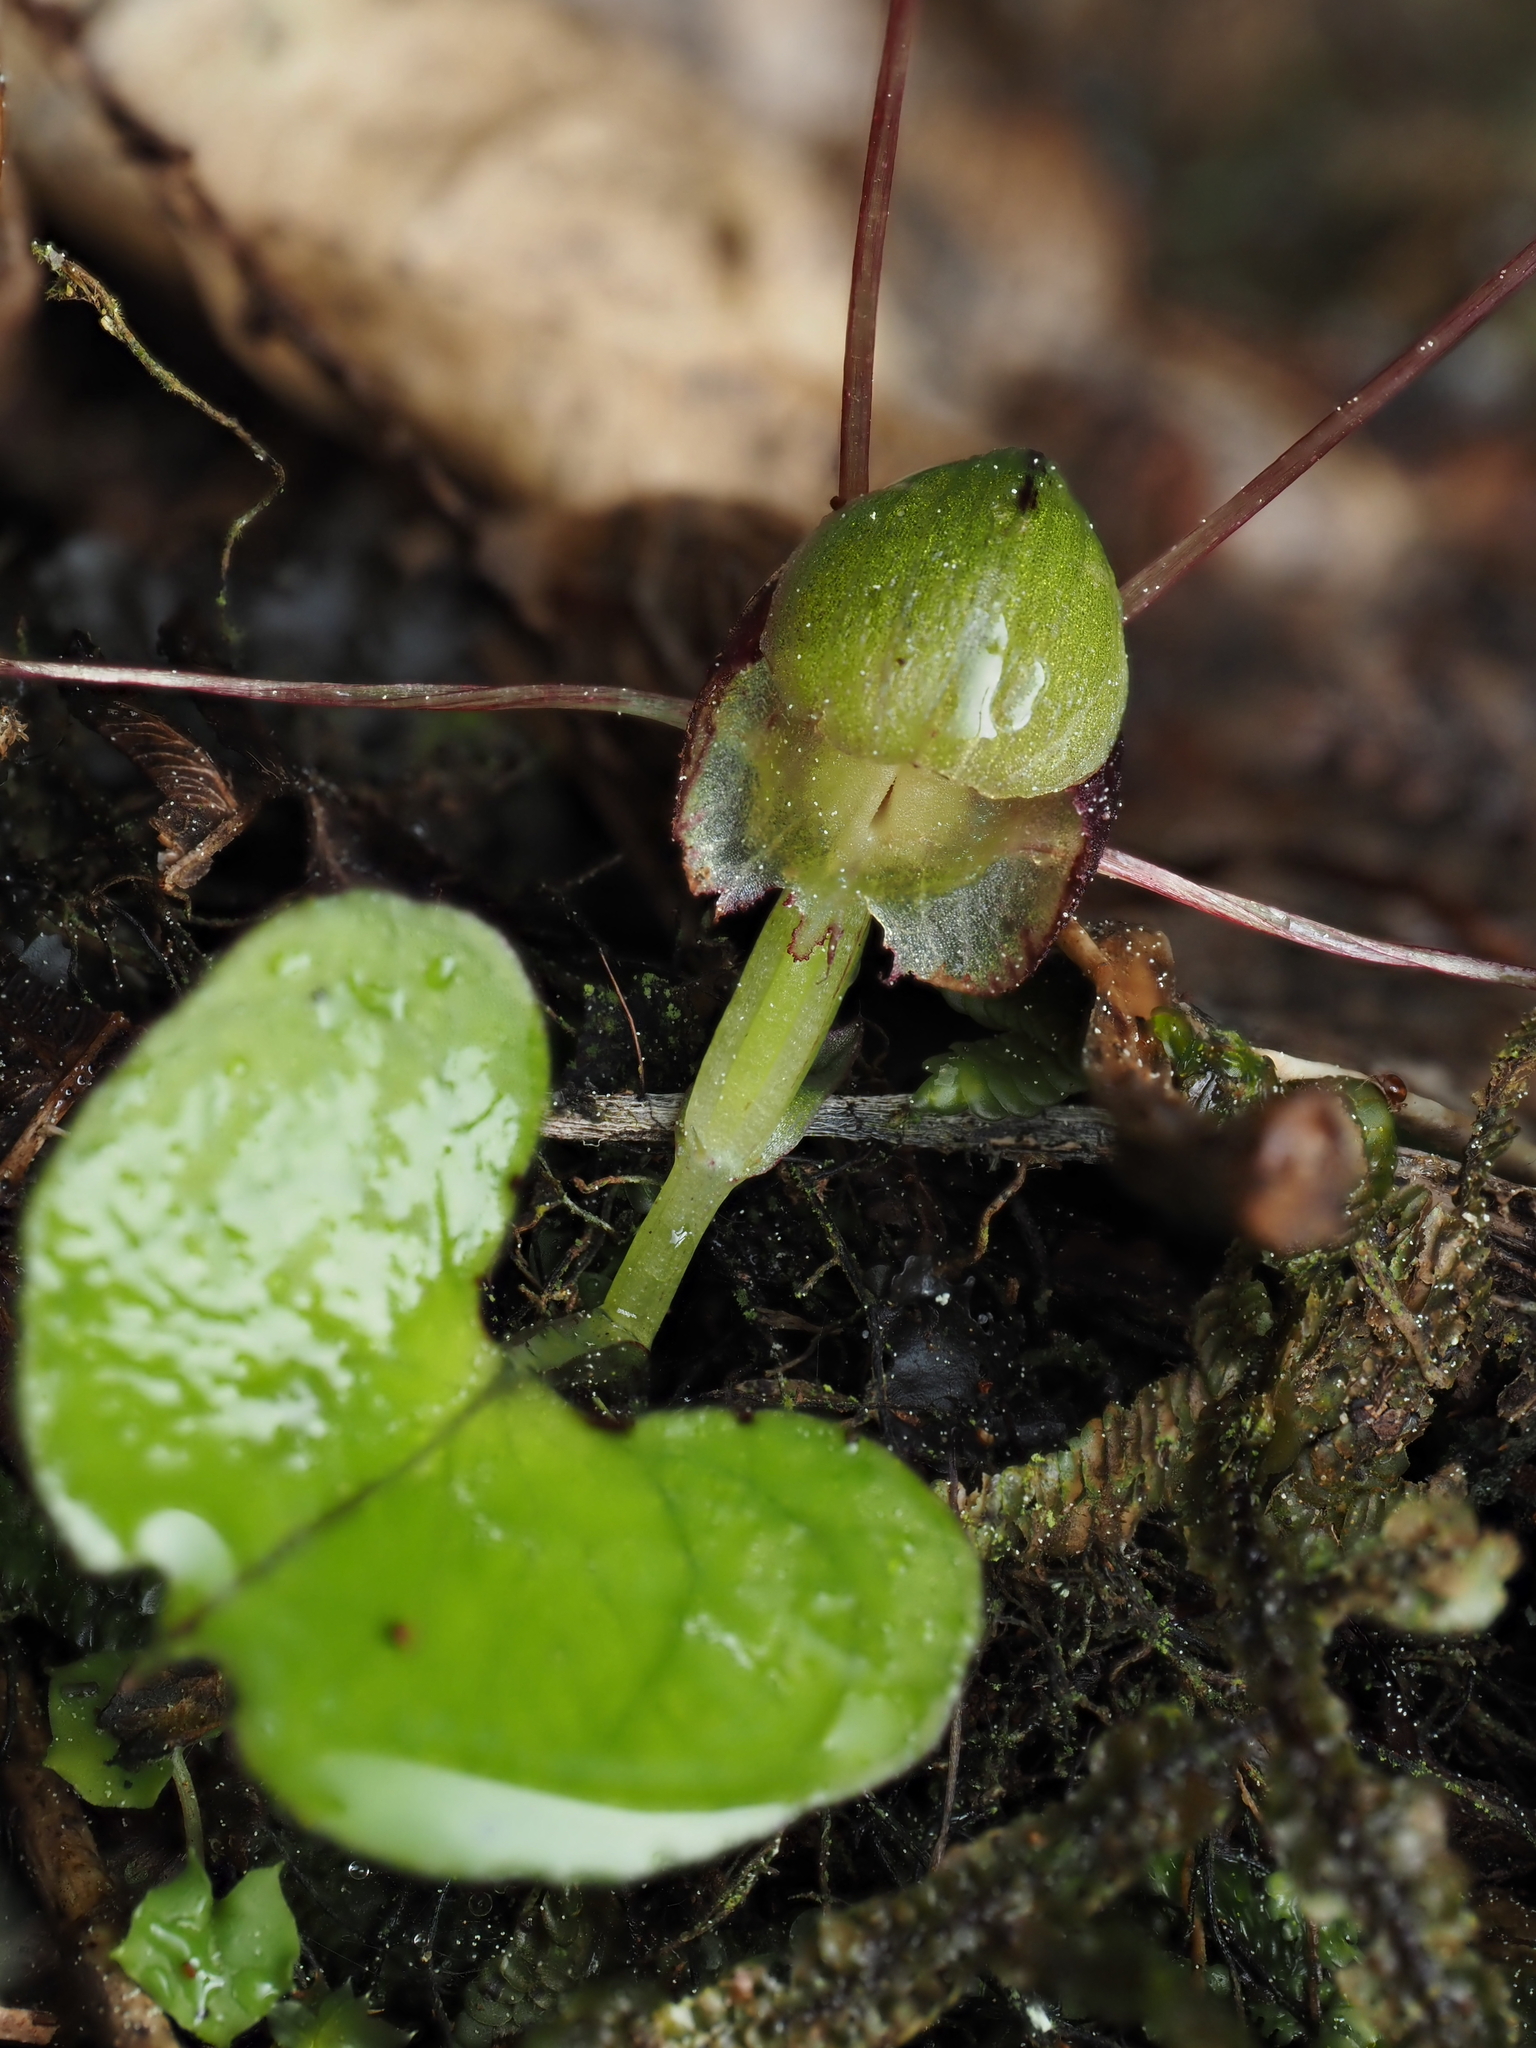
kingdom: Plantae
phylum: Tracheophyta
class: Liliopsida
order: Asparagales
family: Orchidaceae
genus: Corybas
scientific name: Corybas vitreus
